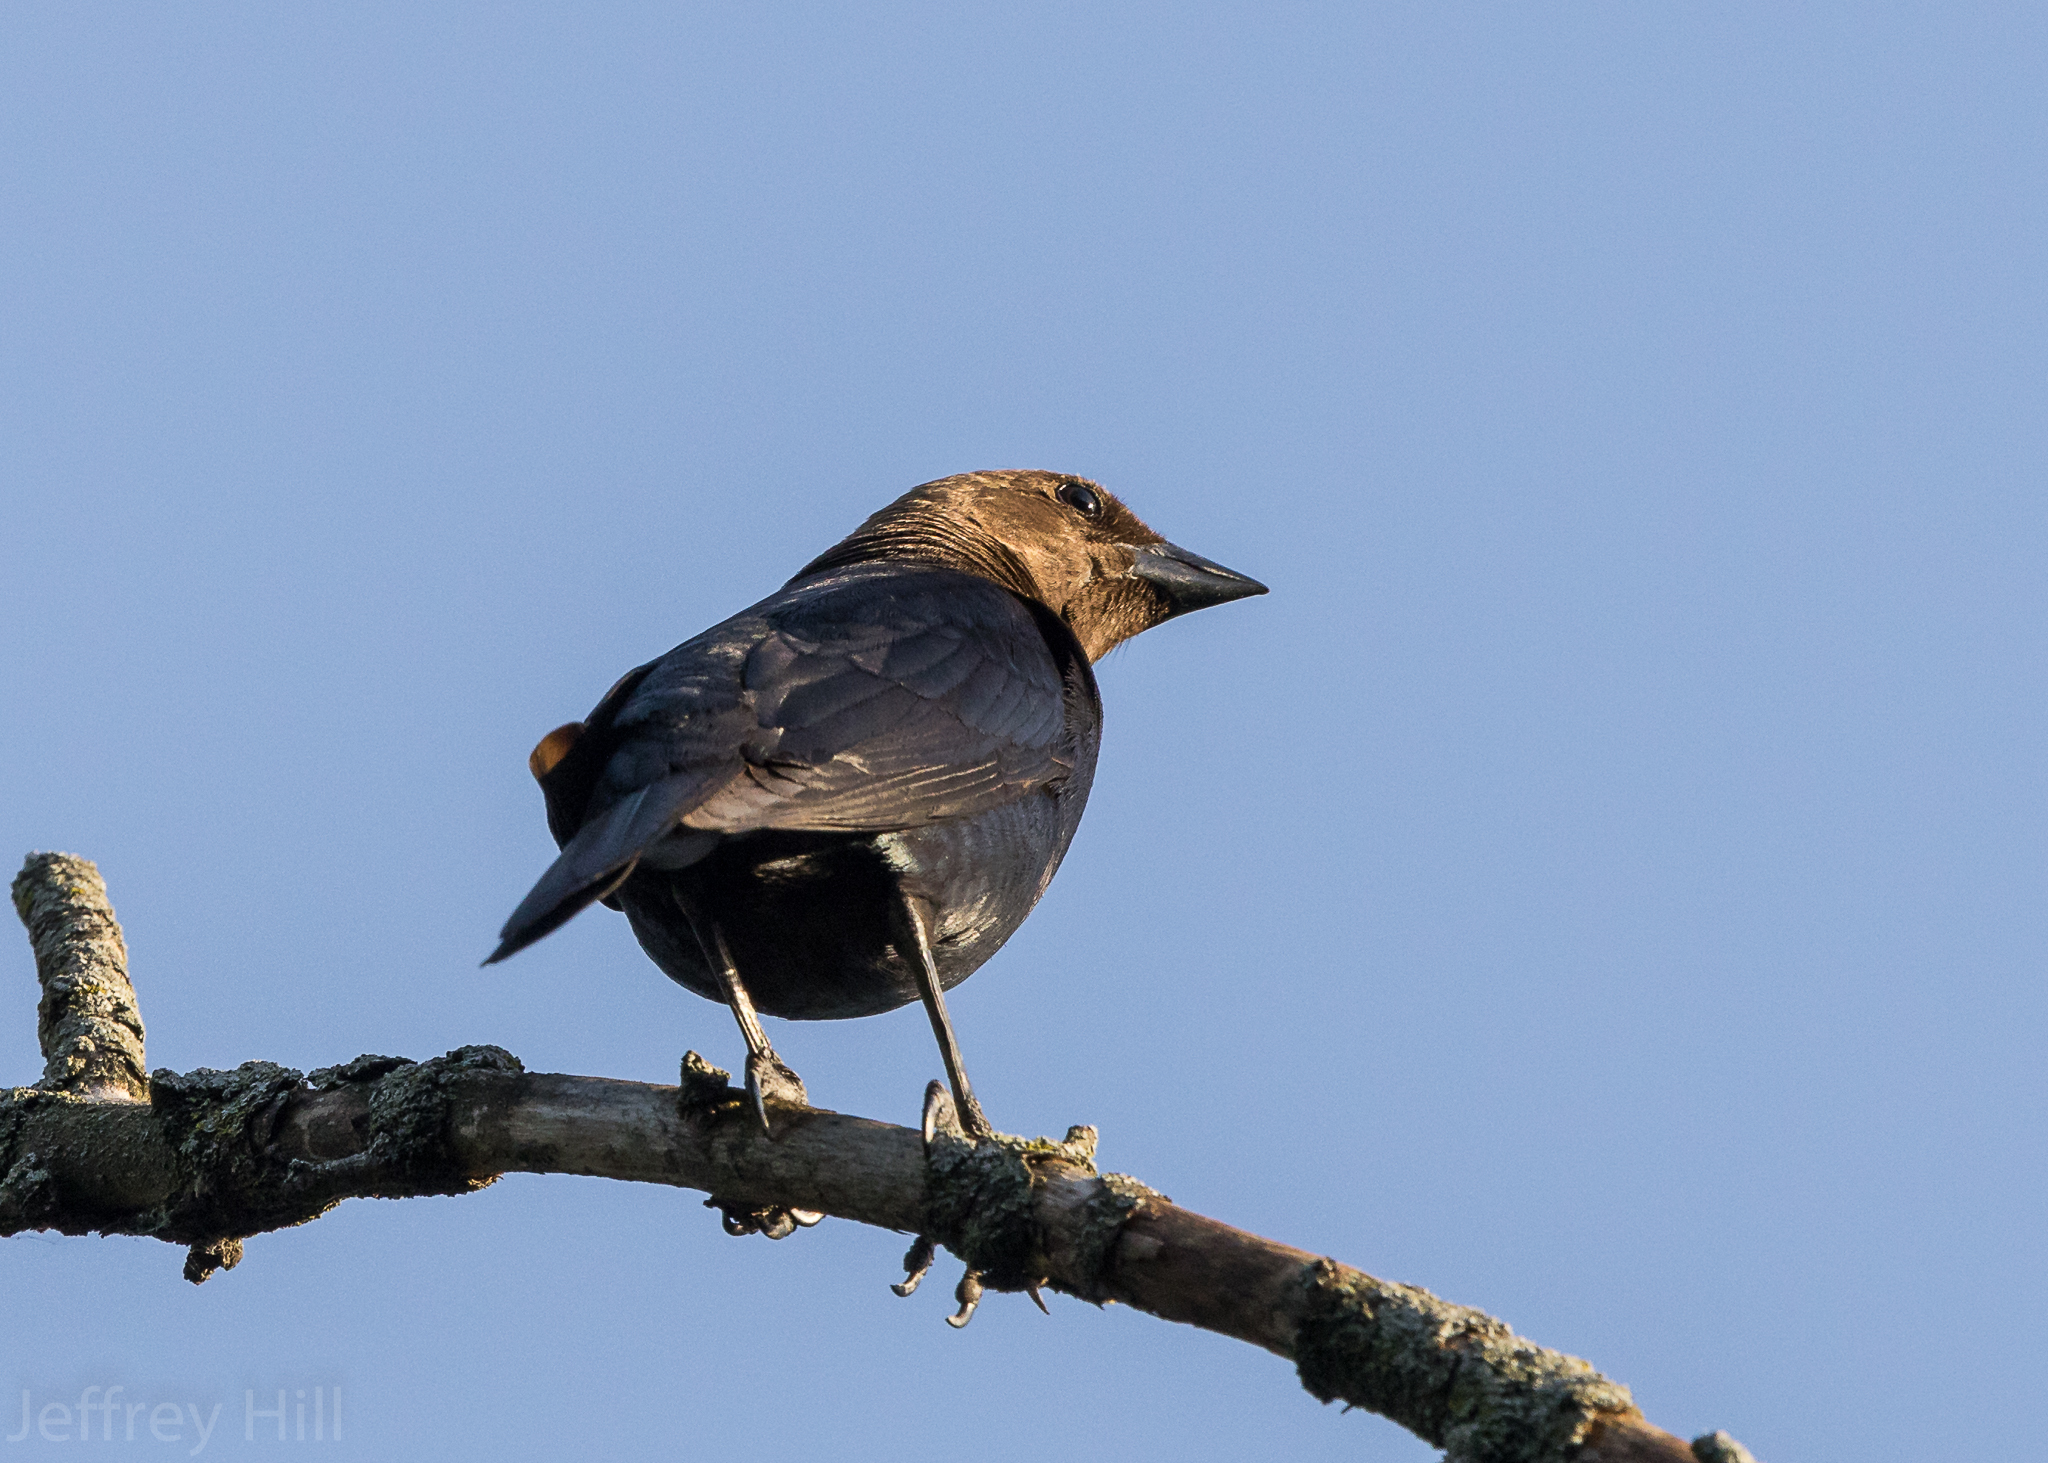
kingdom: Animalia
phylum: Chordata
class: Aves
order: Passeriformes
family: Icteridae
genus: Molothrus
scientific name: Molothrus ater
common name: Brown-headed cowbird
